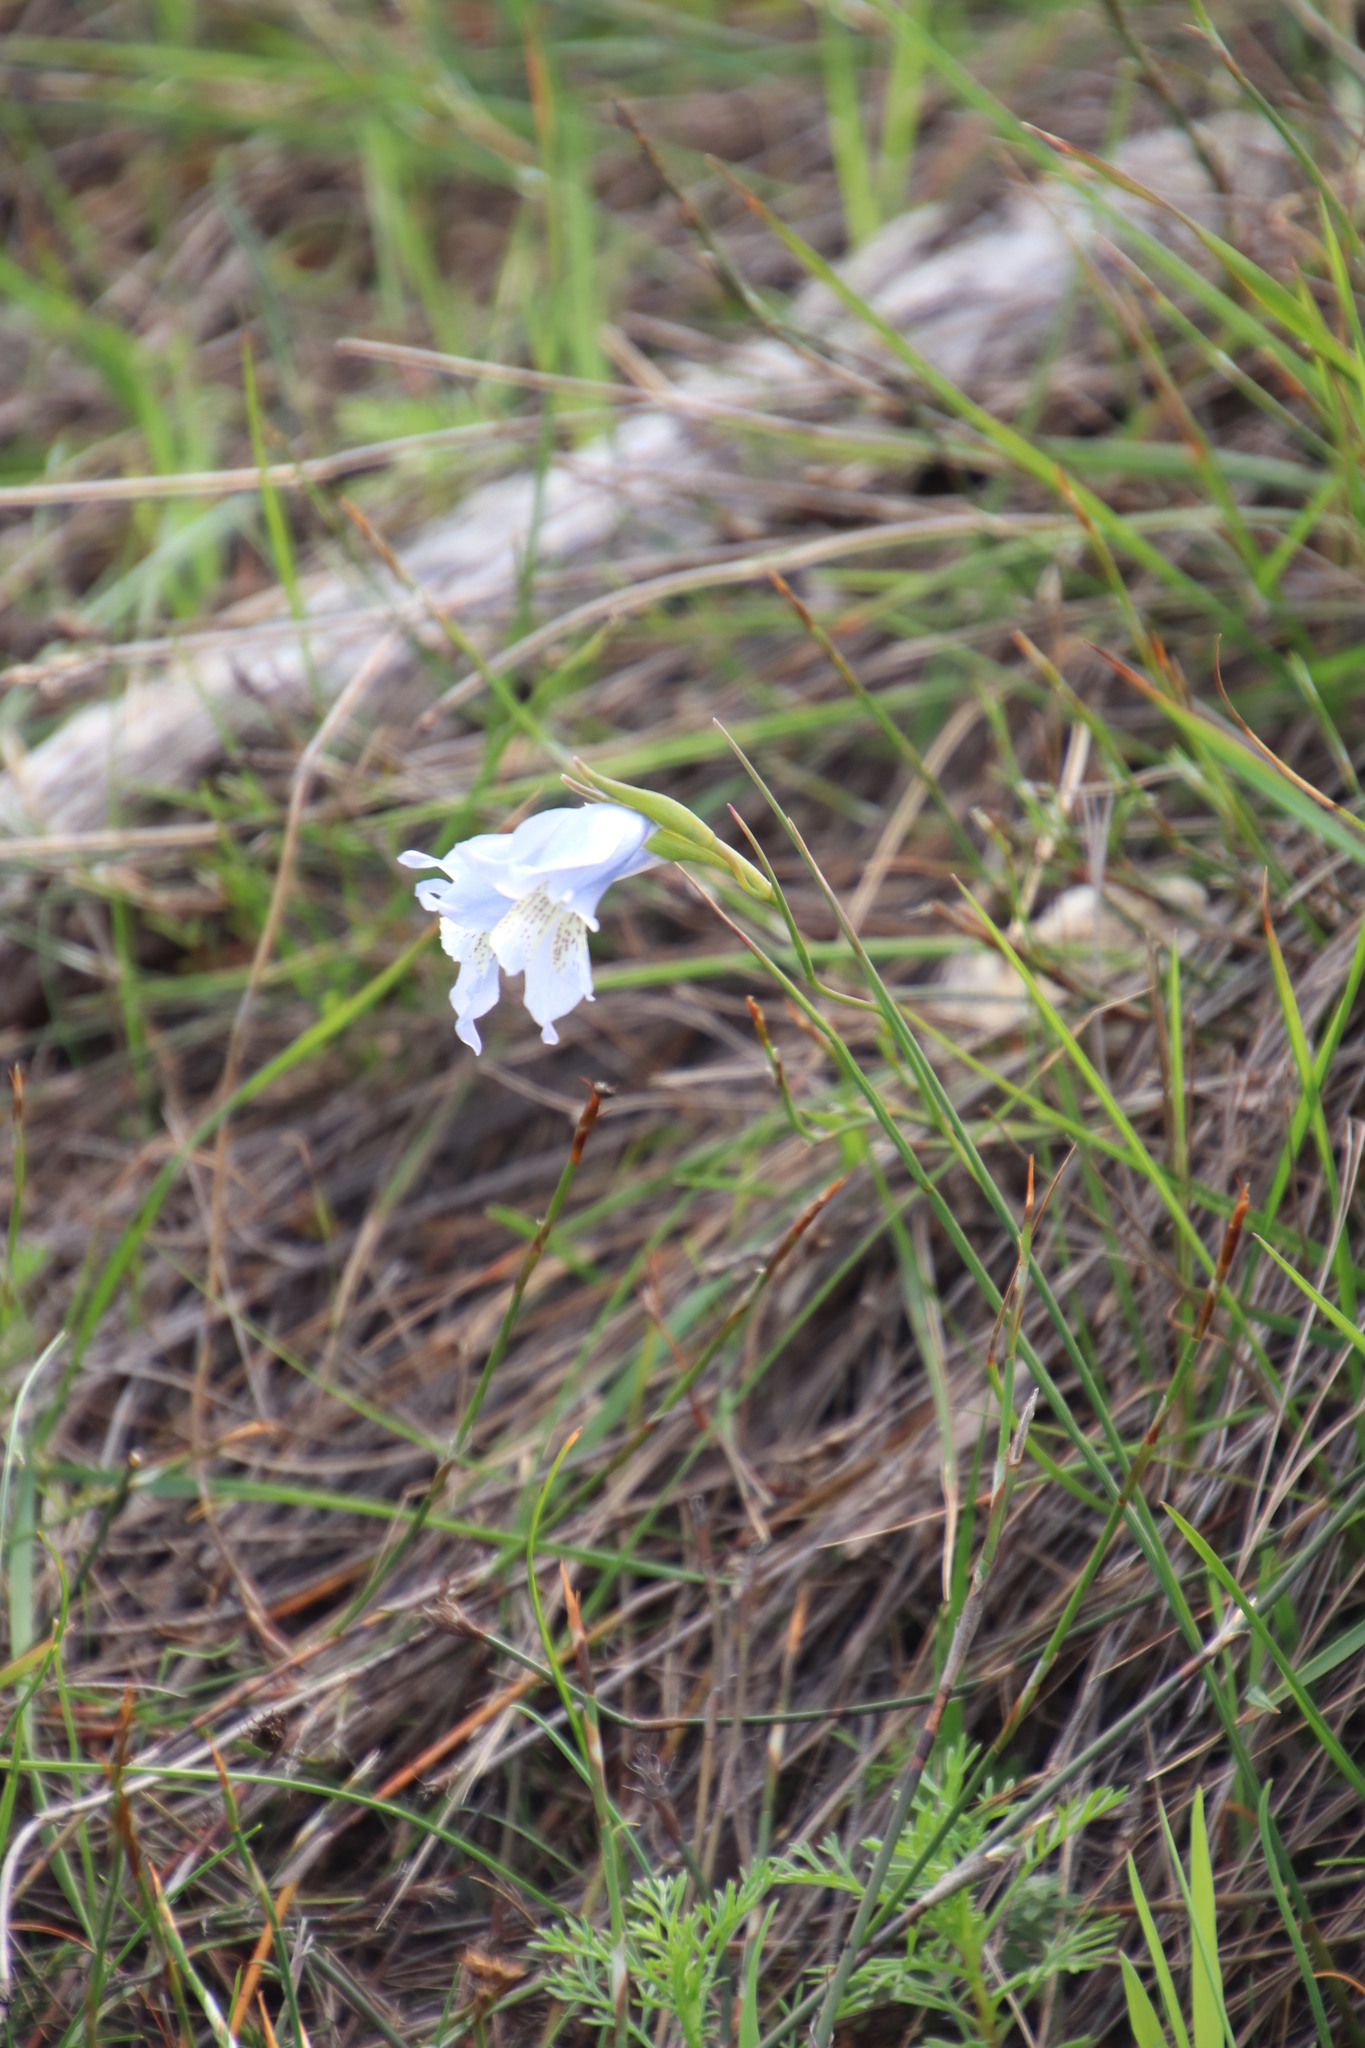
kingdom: Plantae
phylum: Tracheophyta
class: Liliopsida
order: Asparagales
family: Iridaceae
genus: Gladiolus
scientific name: Gladiolus gracilis
